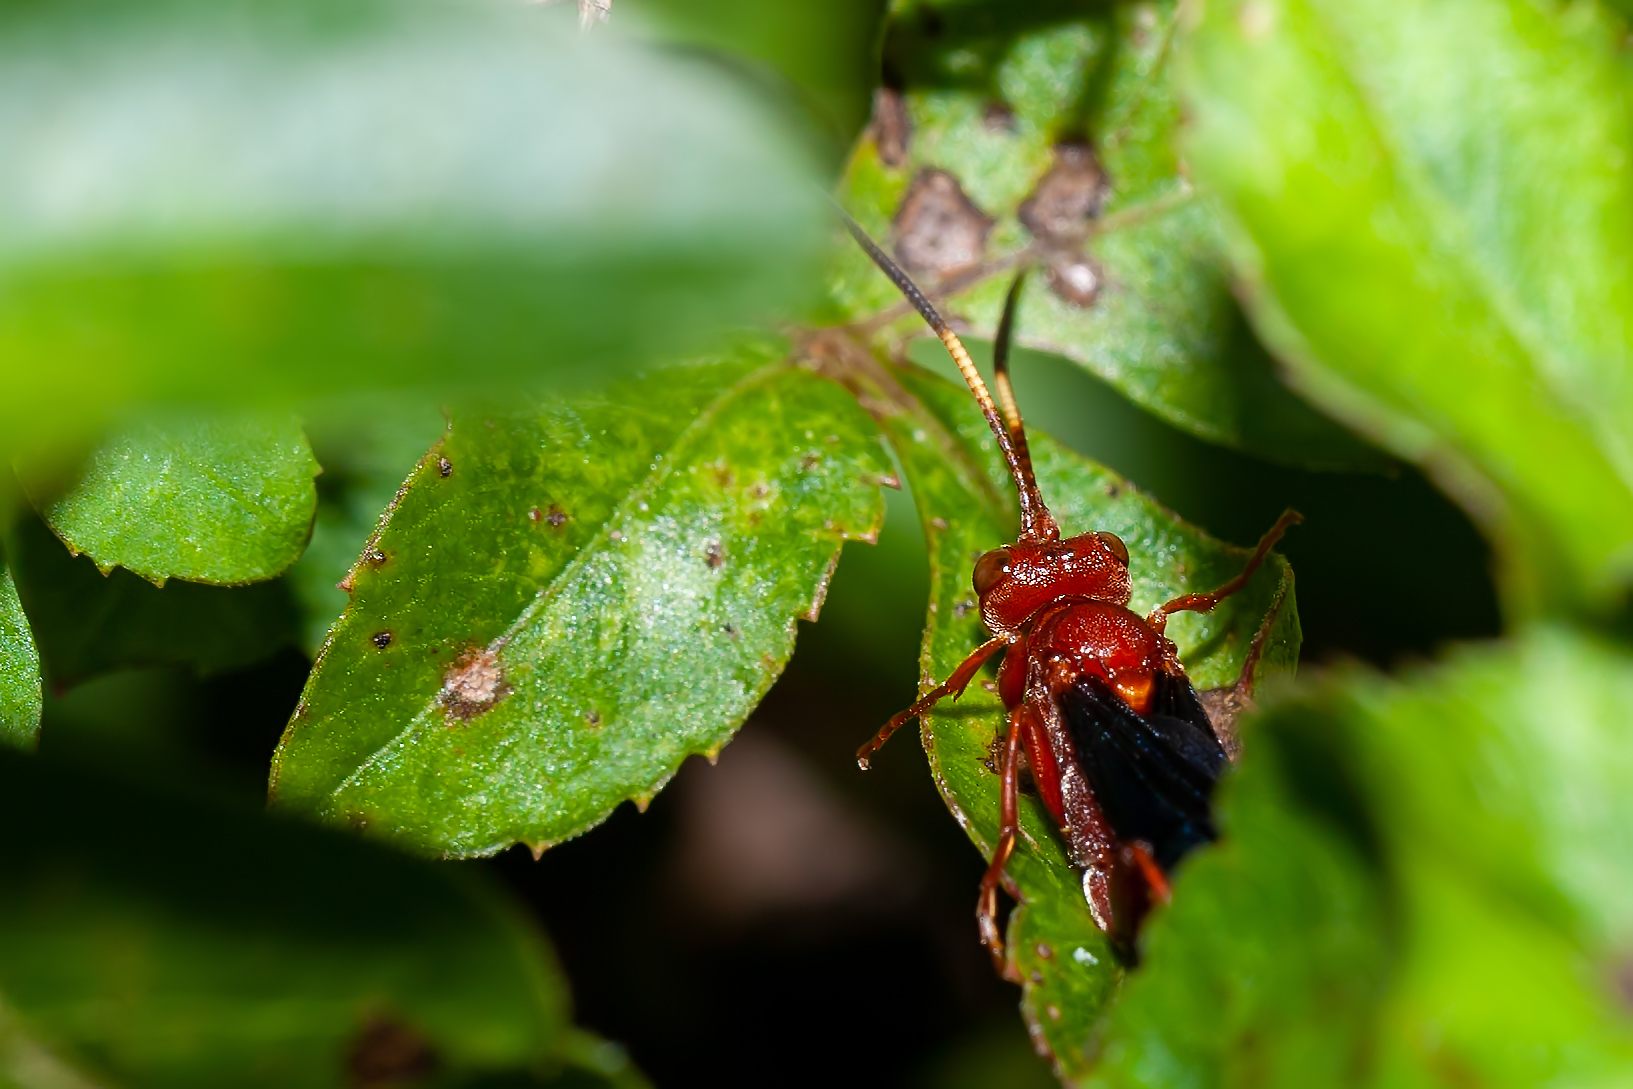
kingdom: Animalia
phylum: Arthropoda
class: Insecta
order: Hymenoptera
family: Ichneumonidae
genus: Trogomorpha
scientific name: Trogomorpha trogiformis
